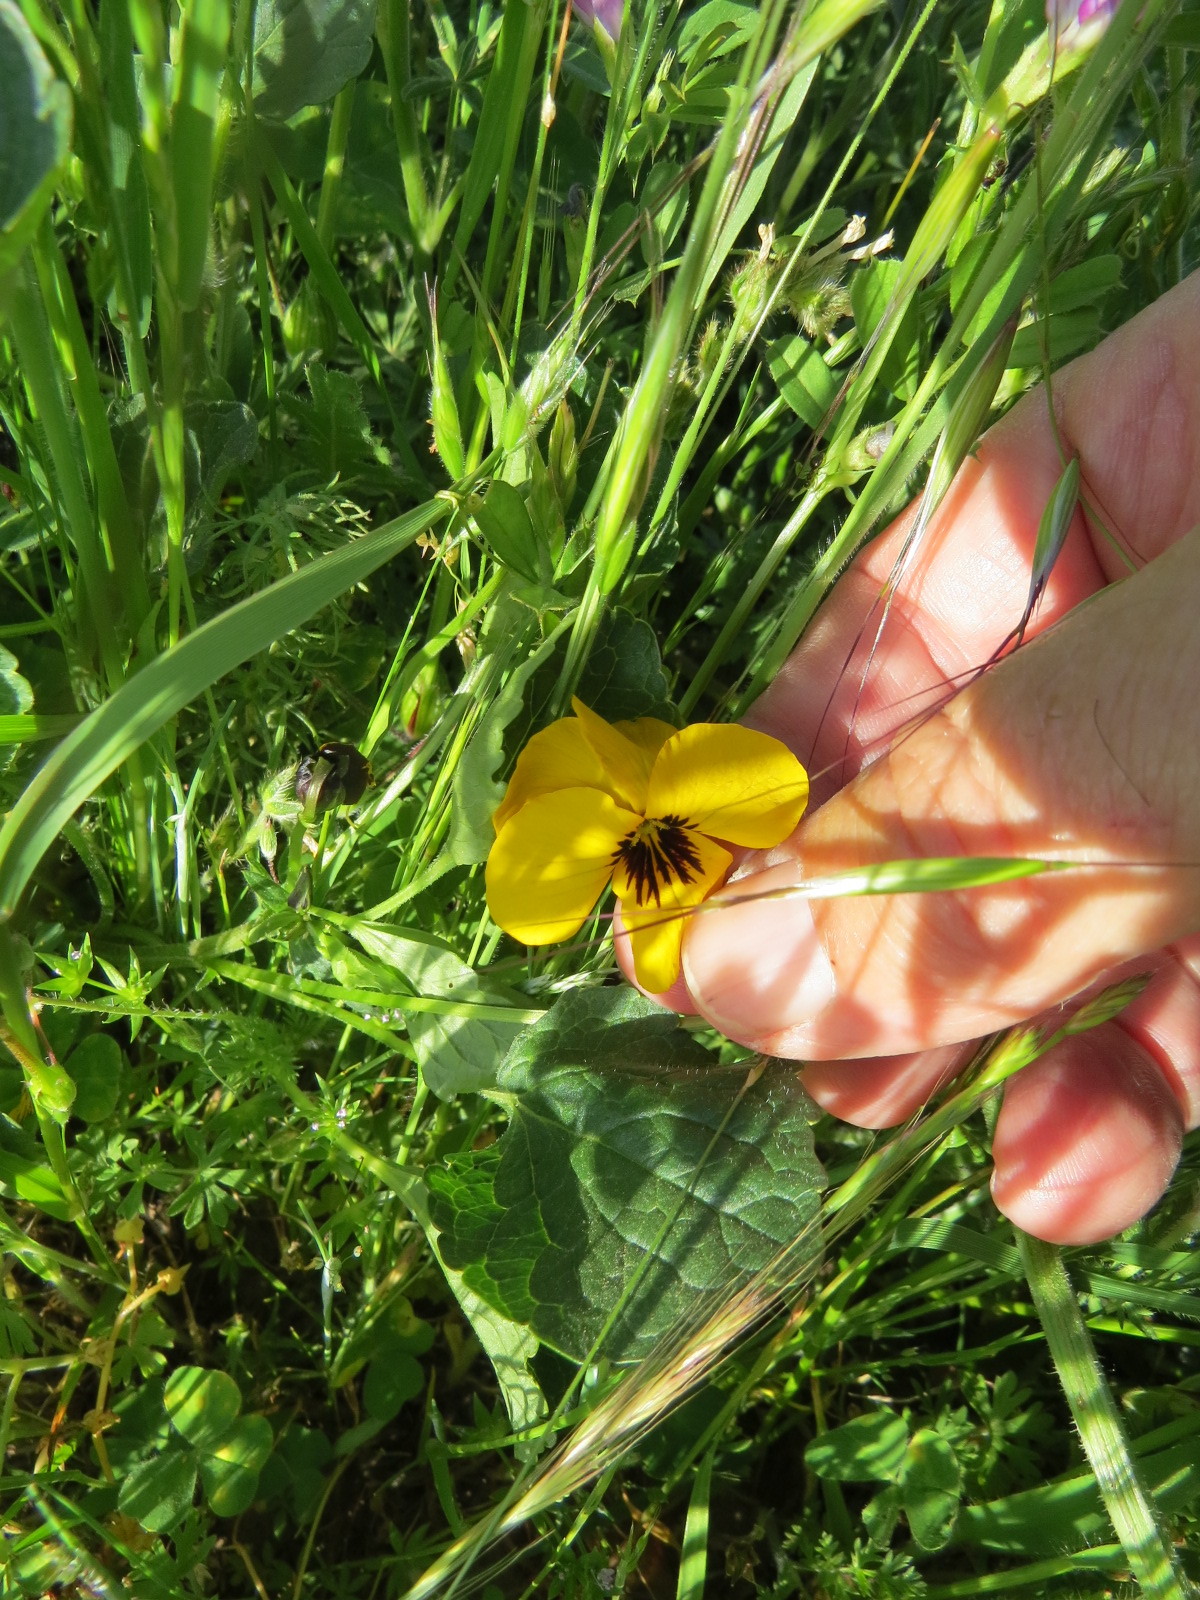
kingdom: Plantae
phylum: Tracheophyta
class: Magnoliopsida
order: Malpighiales
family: Violaceae
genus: Viola
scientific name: Viola pedunculata
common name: California golden violet
